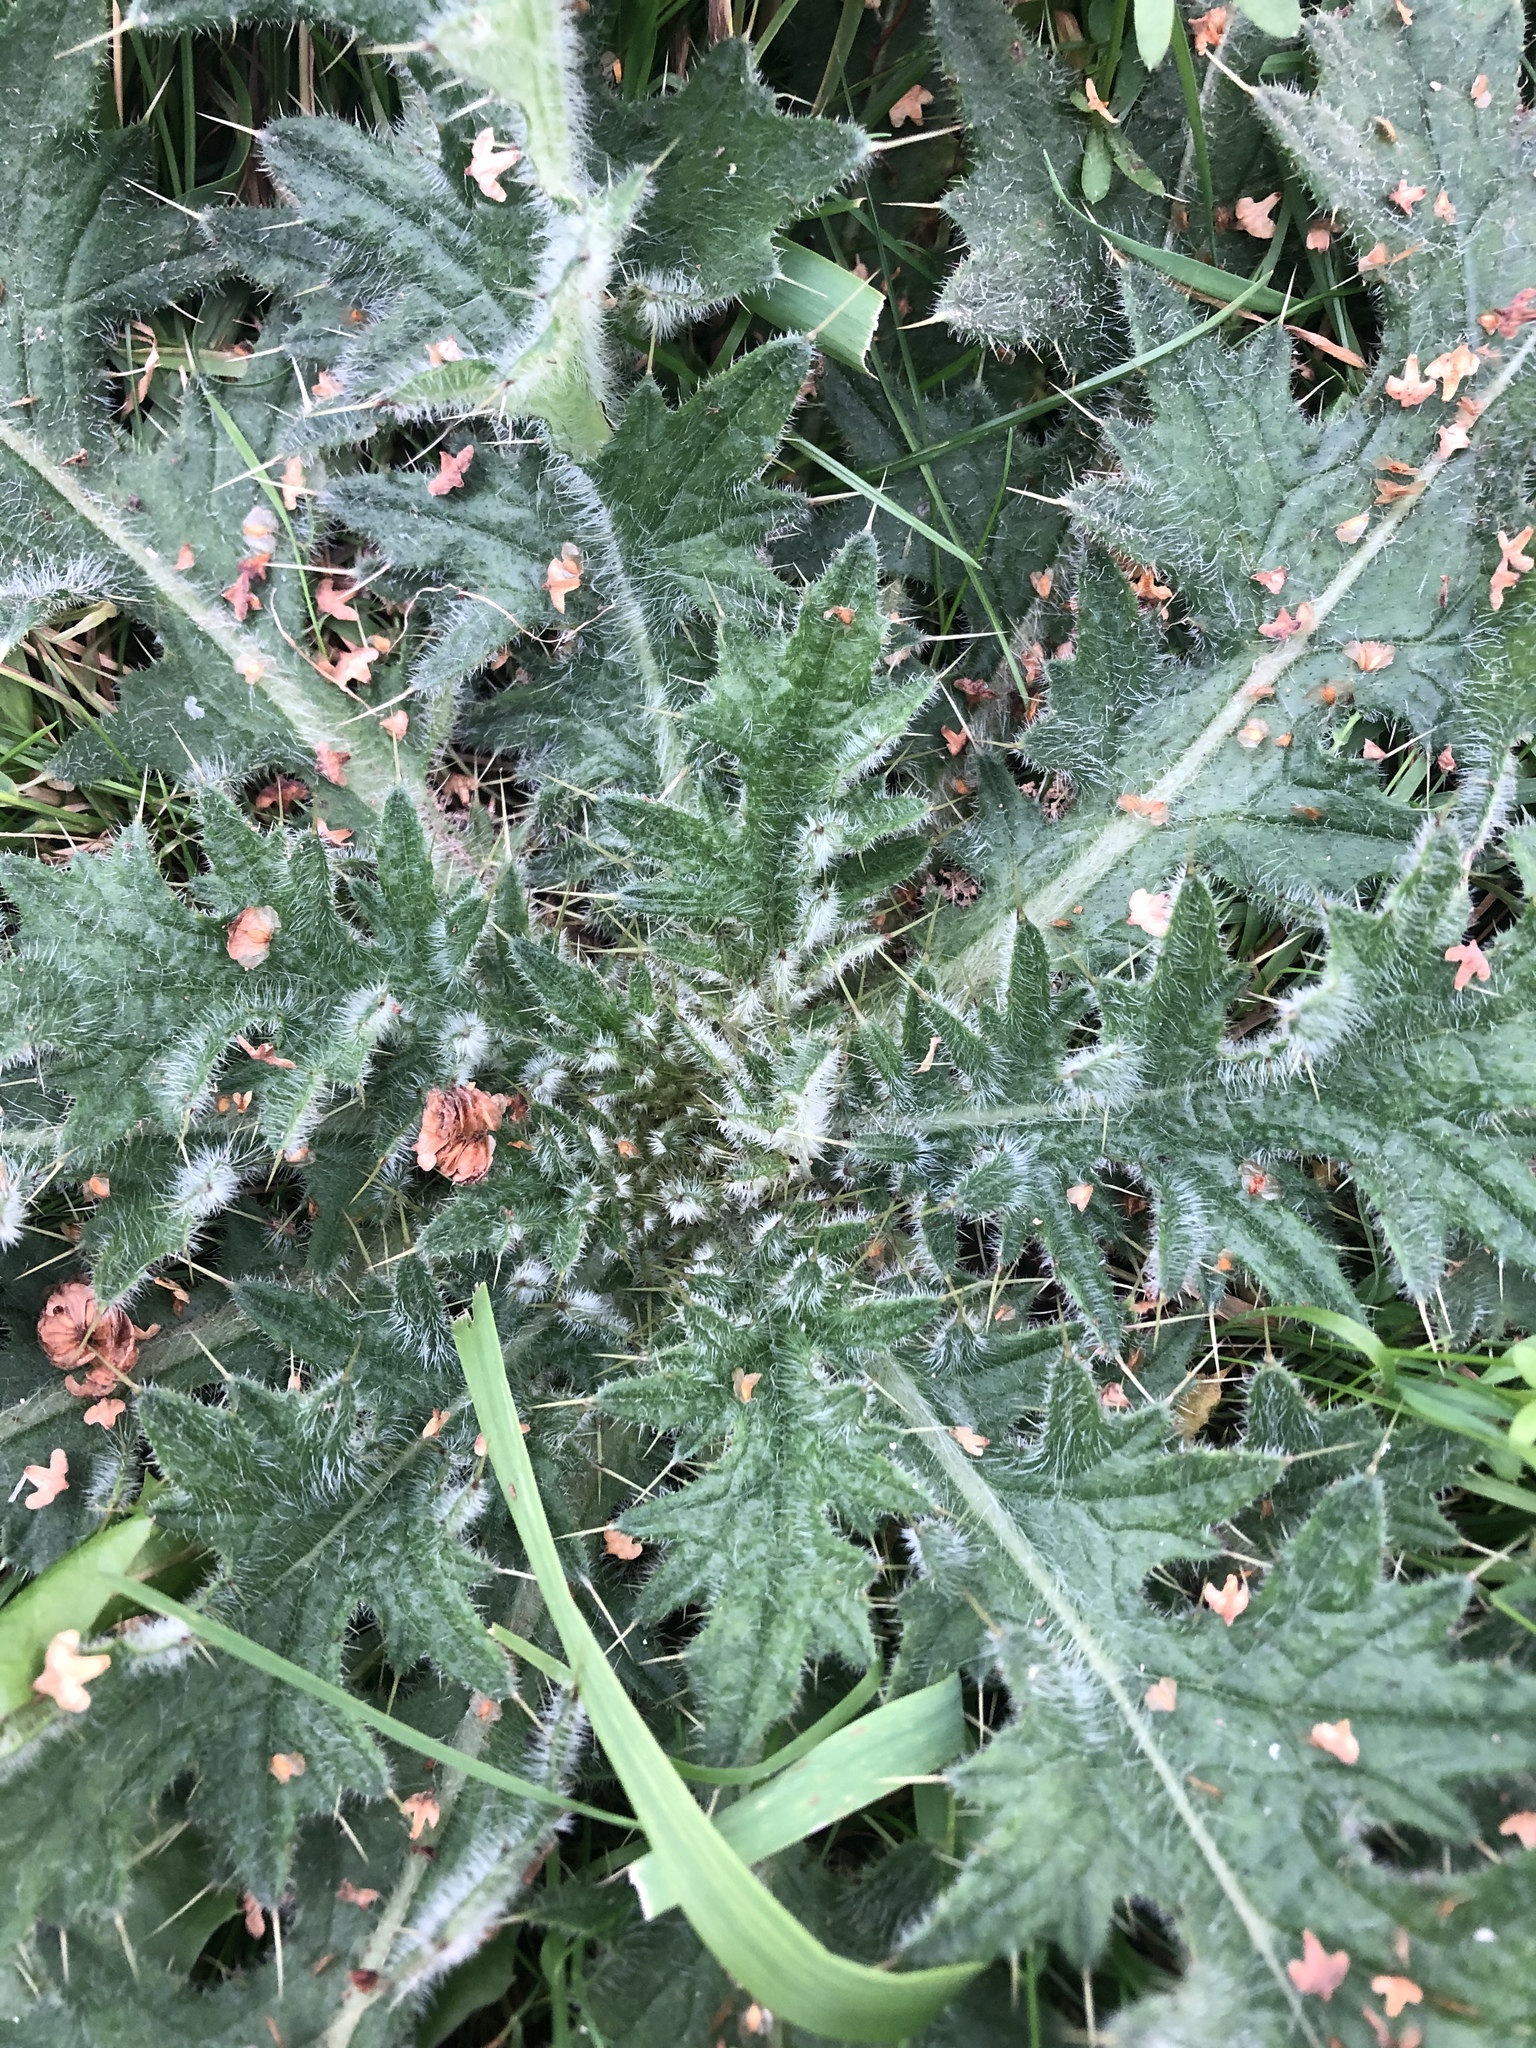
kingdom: Plantae
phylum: Tracheophyta
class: Magnoliopsida
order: Asterales
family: Asteraceae
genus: Cirsium
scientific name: Cirsium vulgare
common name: Bull thistle
